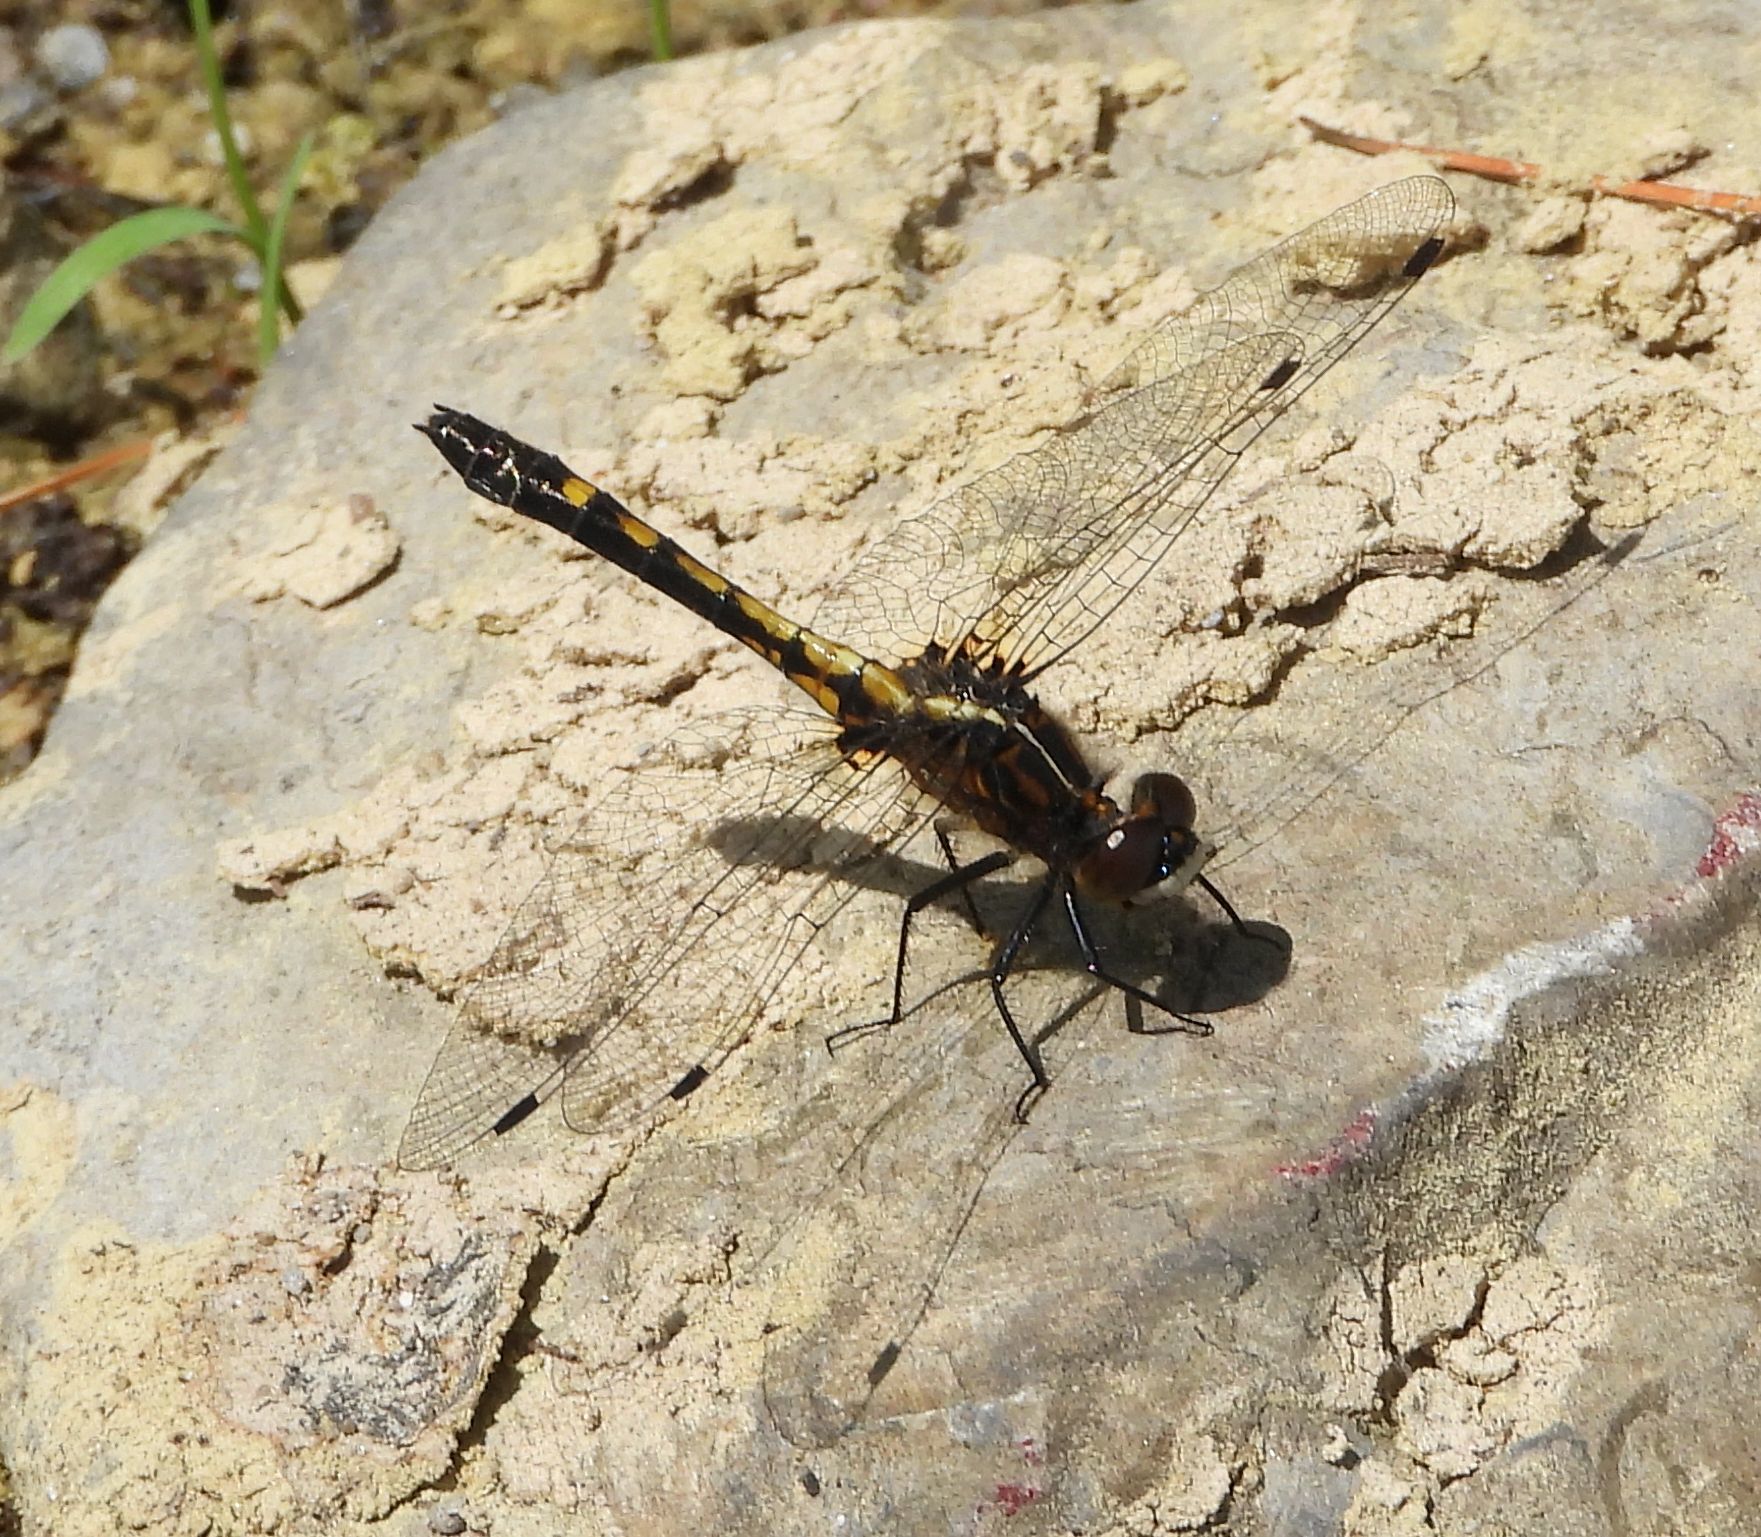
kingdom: Animalia
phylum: Arthropoda
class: Insecta
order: Odonata
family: Libellulidae
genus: Leucorrhinia
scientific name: Leucorrhinia intacta
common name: Dot-tailed whiteface
